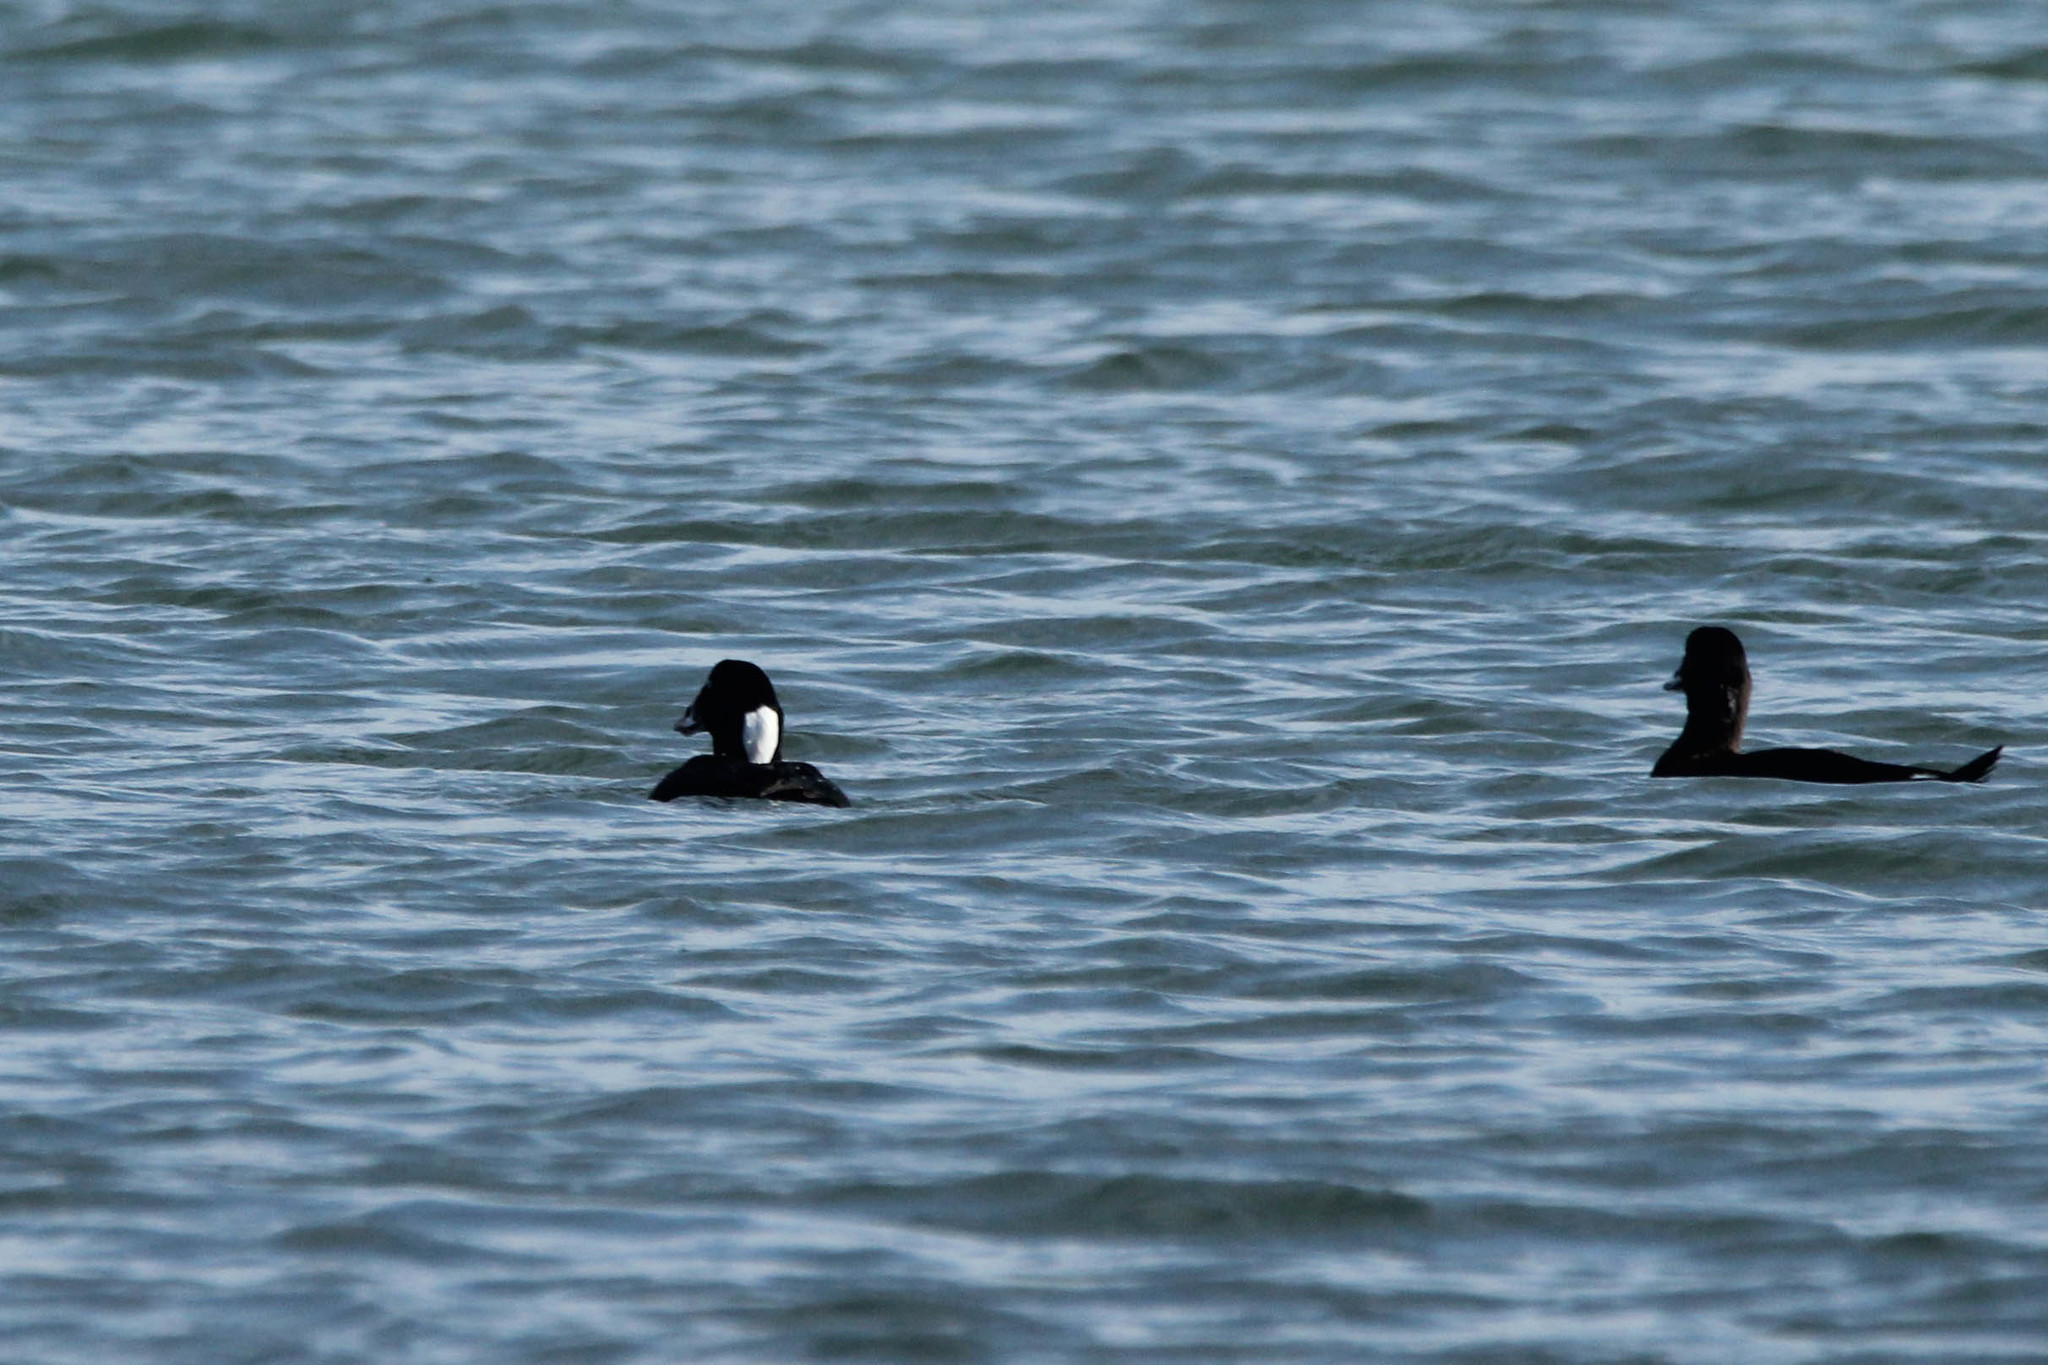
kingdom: Animalia
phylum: Chordata
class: Aves
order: Anseriformes
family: Anatidae
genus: Melanitta
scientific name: Melanitta perspicillata
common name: Surf scoter
